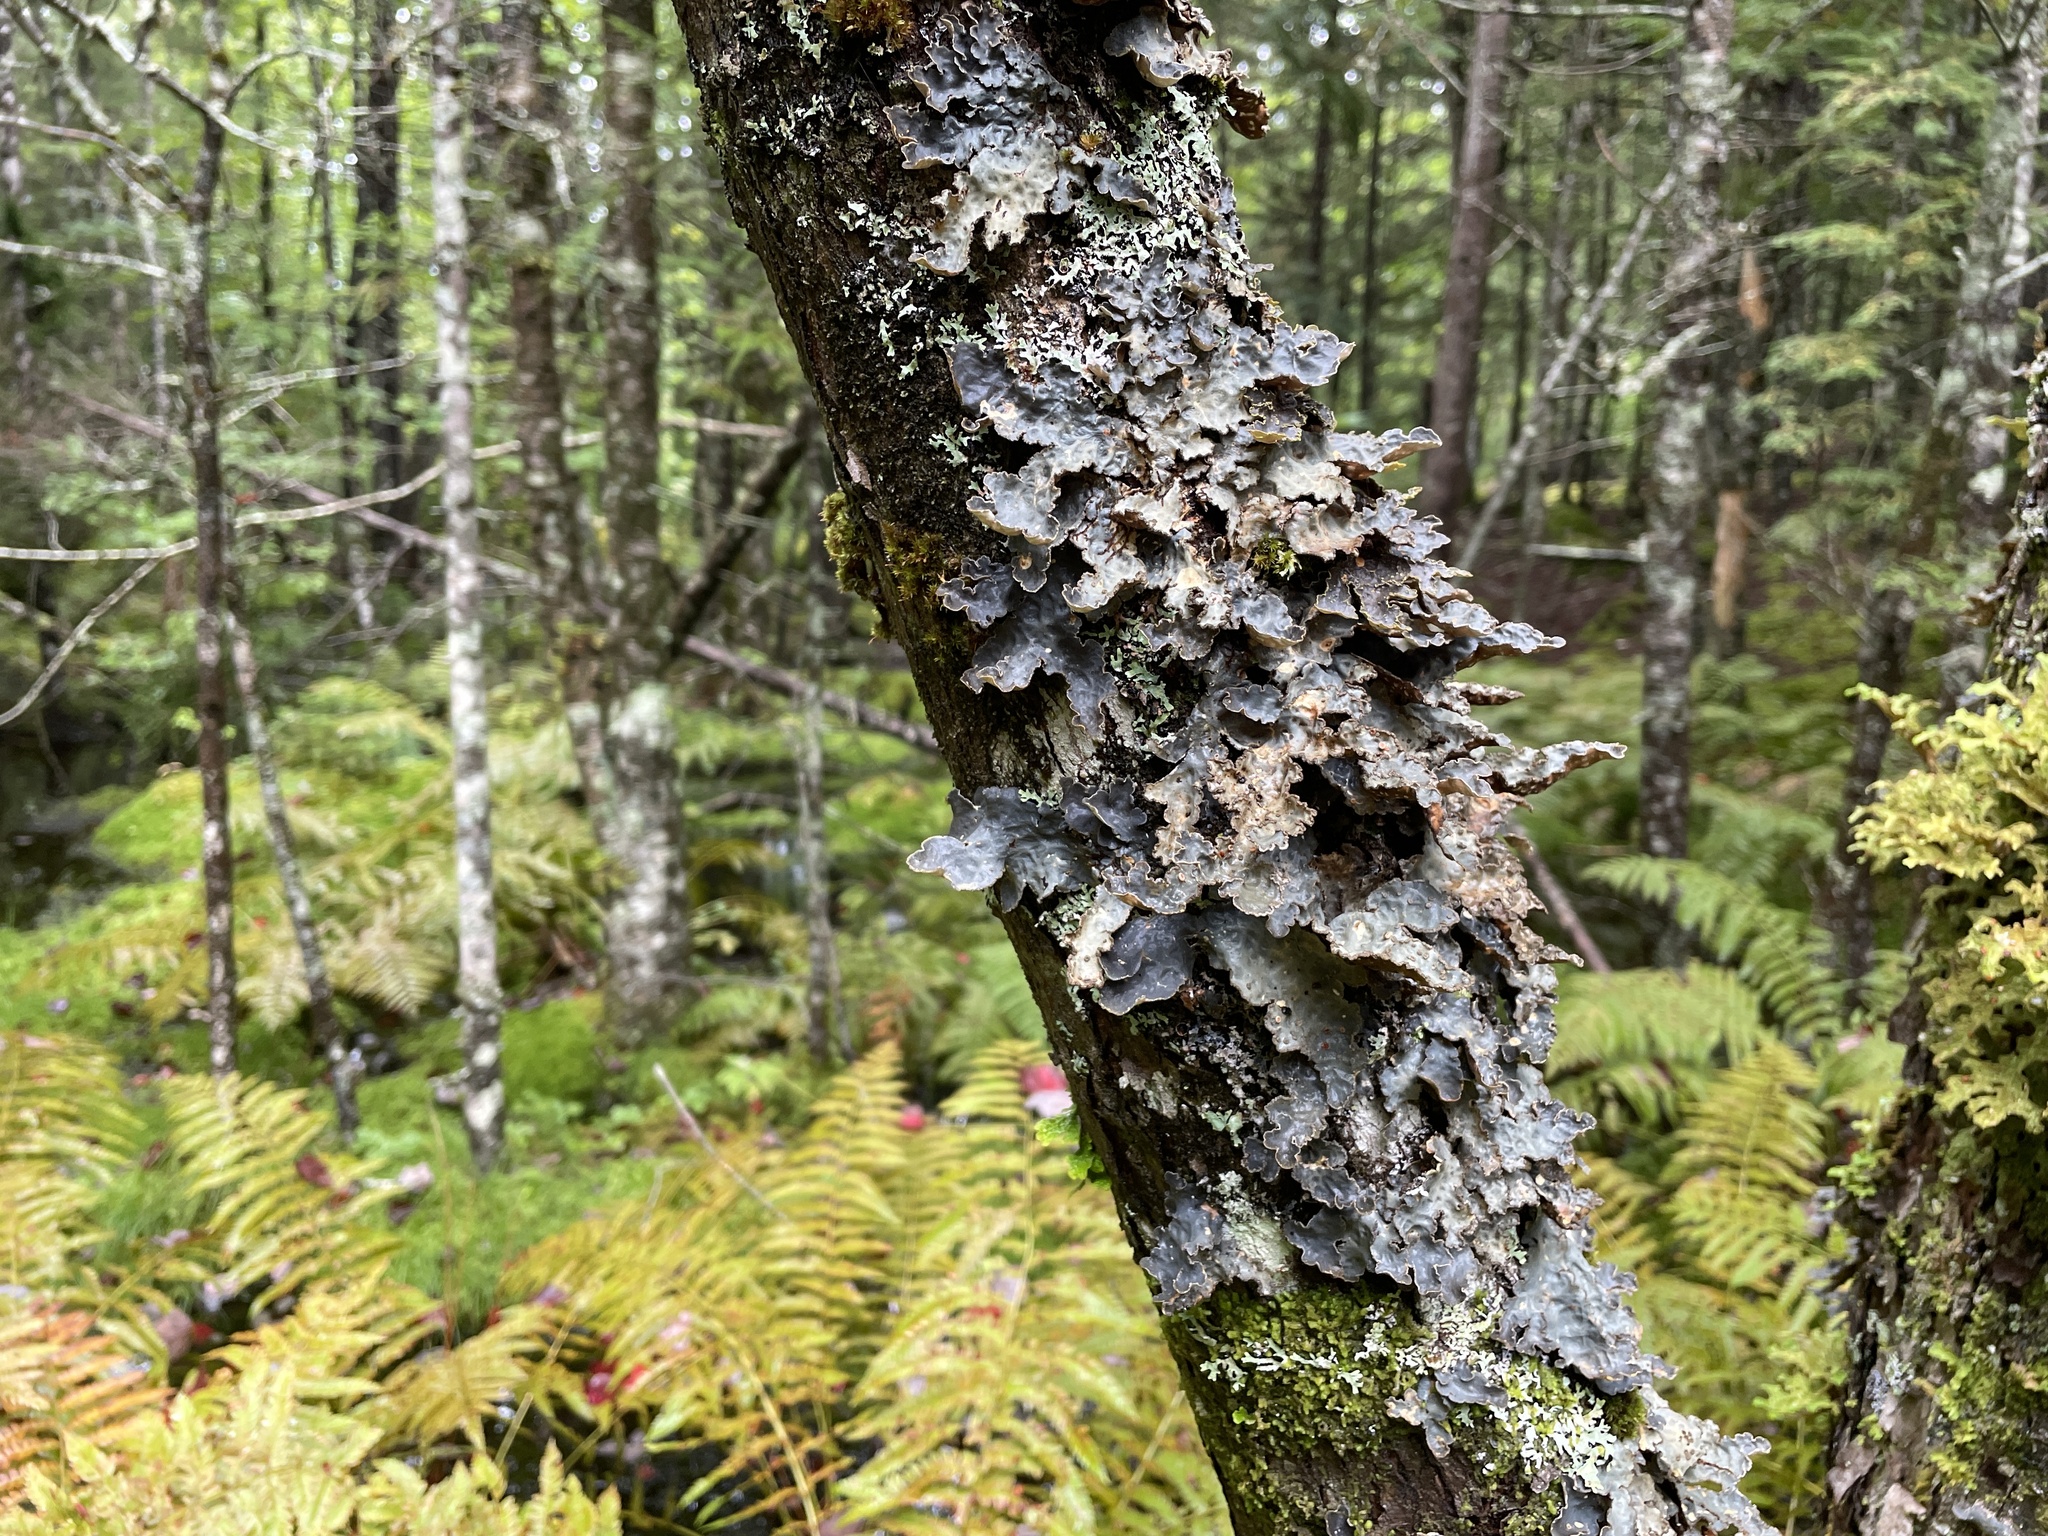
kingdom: Fungi
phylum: Ascomycota
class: Lecanoromycetes
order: Peltigerales
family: Lobariaceae
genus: Lobarina
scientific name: Lobarina scrobiculata
